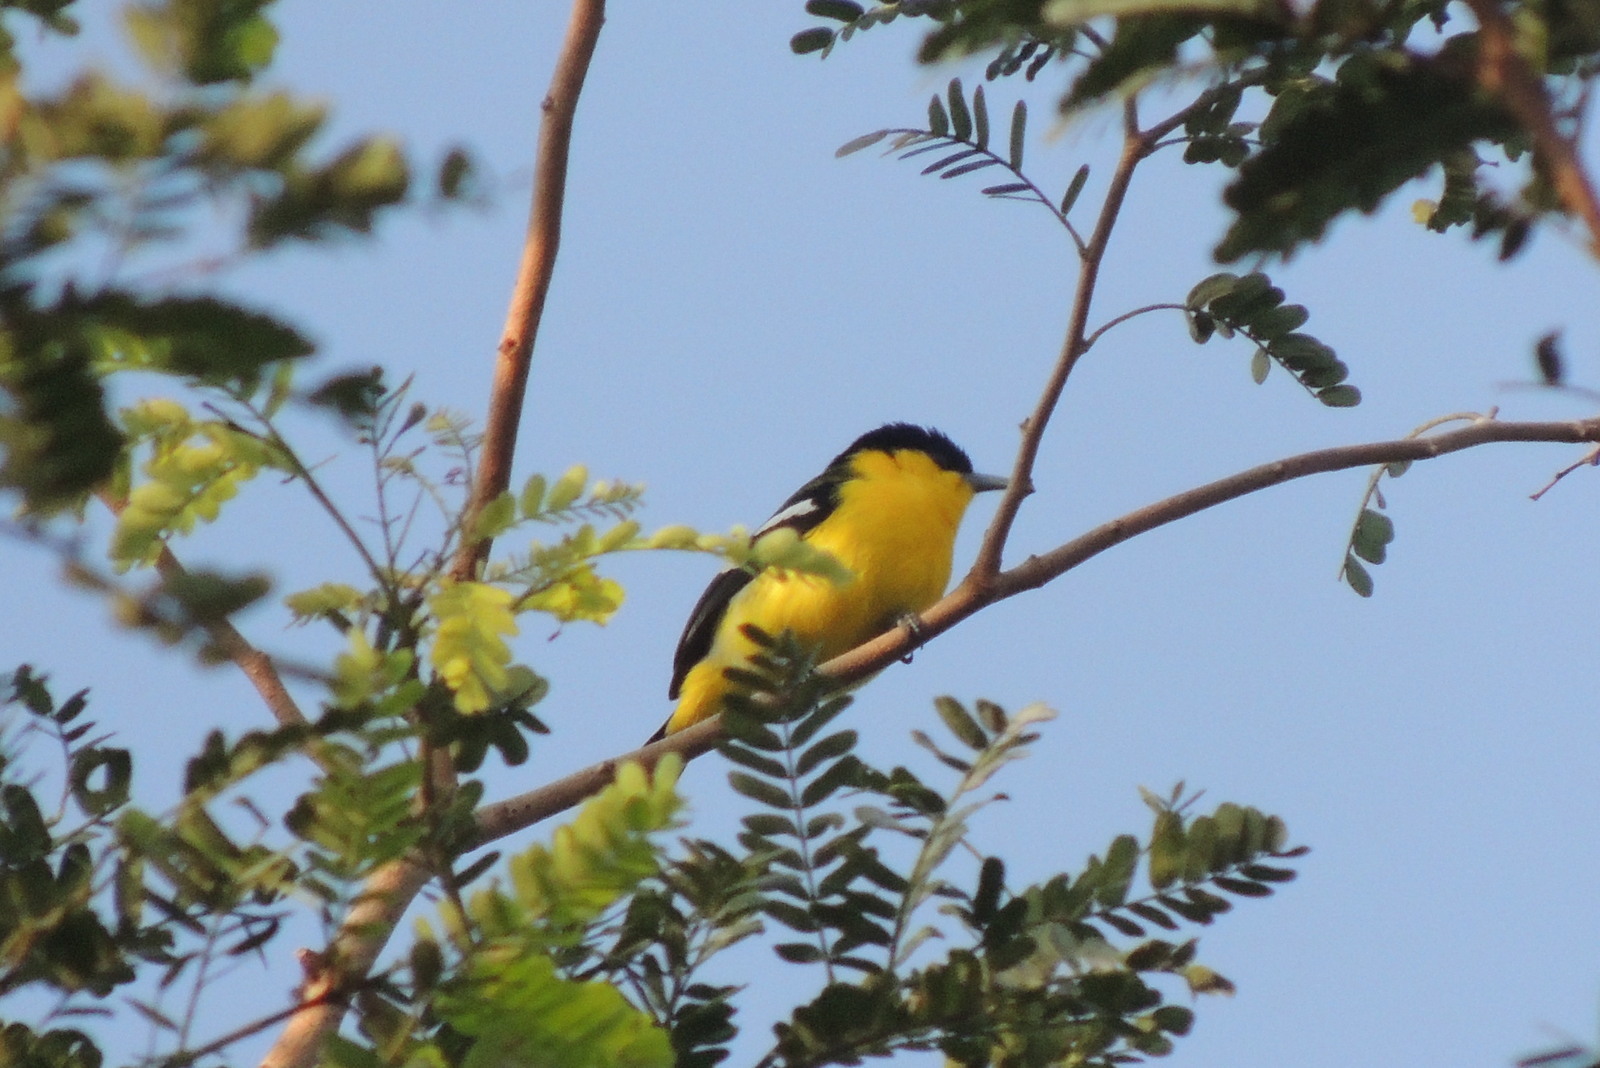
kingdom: Animalia
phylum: Chordata
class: Aves
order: Passeriformes
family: Aegithinidae
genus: Aegithina
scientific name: Aegithina tiphia
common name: Common iora
